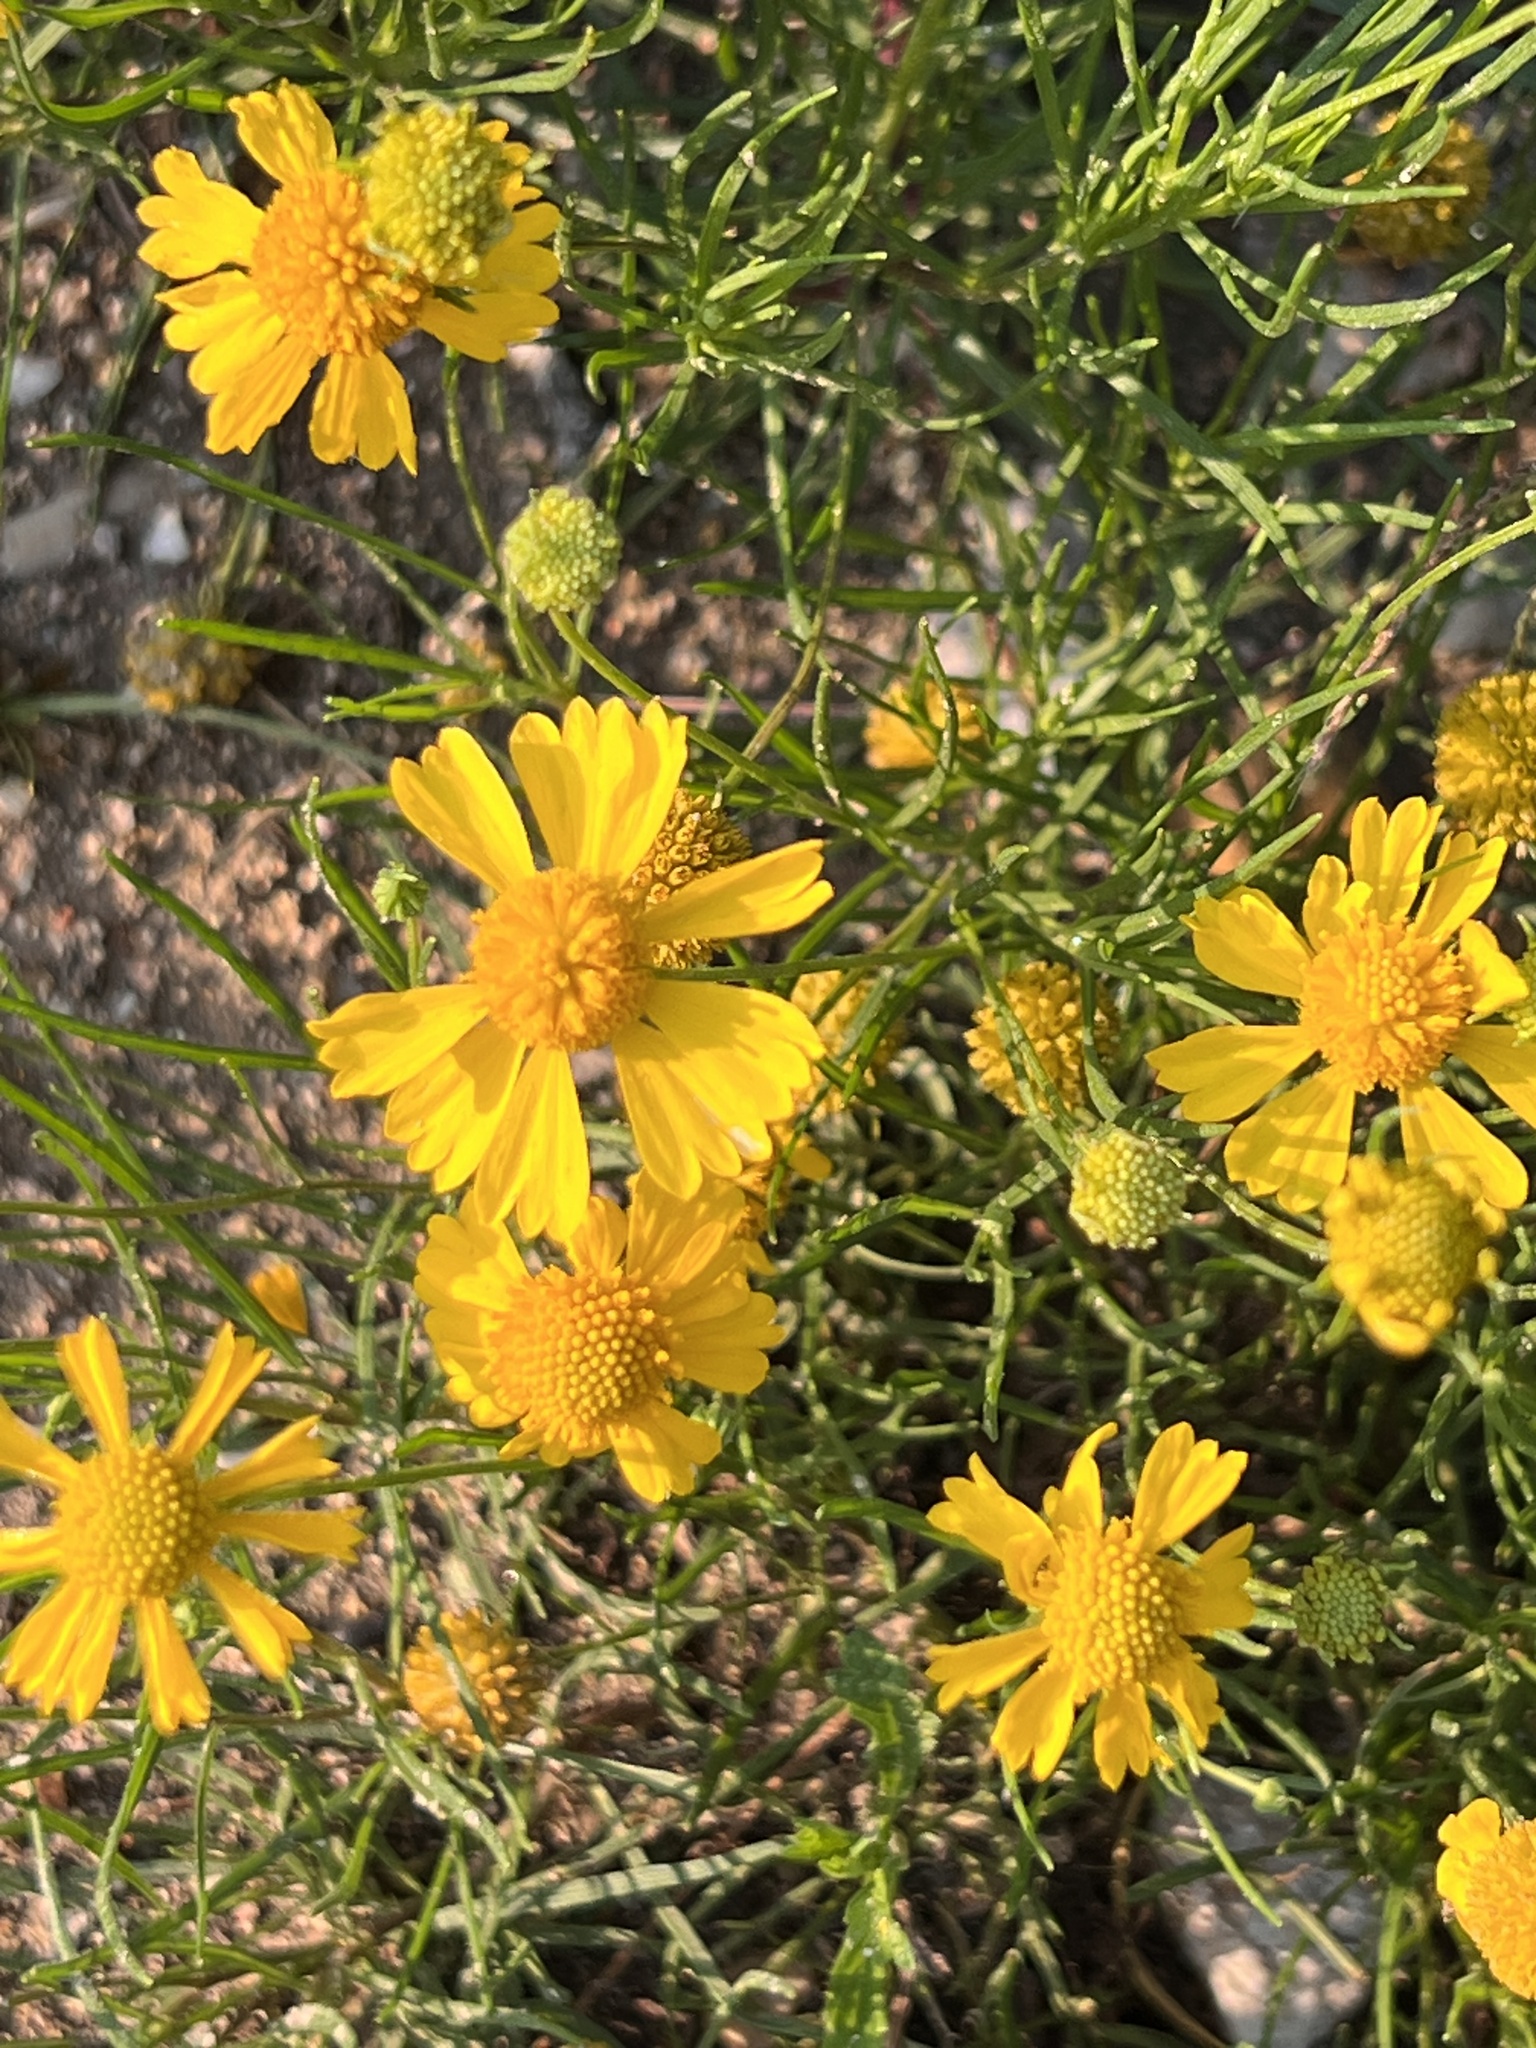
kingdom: Plantae
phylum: Tracheophyta
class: Magnoliopsida
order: Asterales
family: Asteraceae
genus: Helenium
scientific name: Helenium amarum
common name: Bitter sneezeweed
